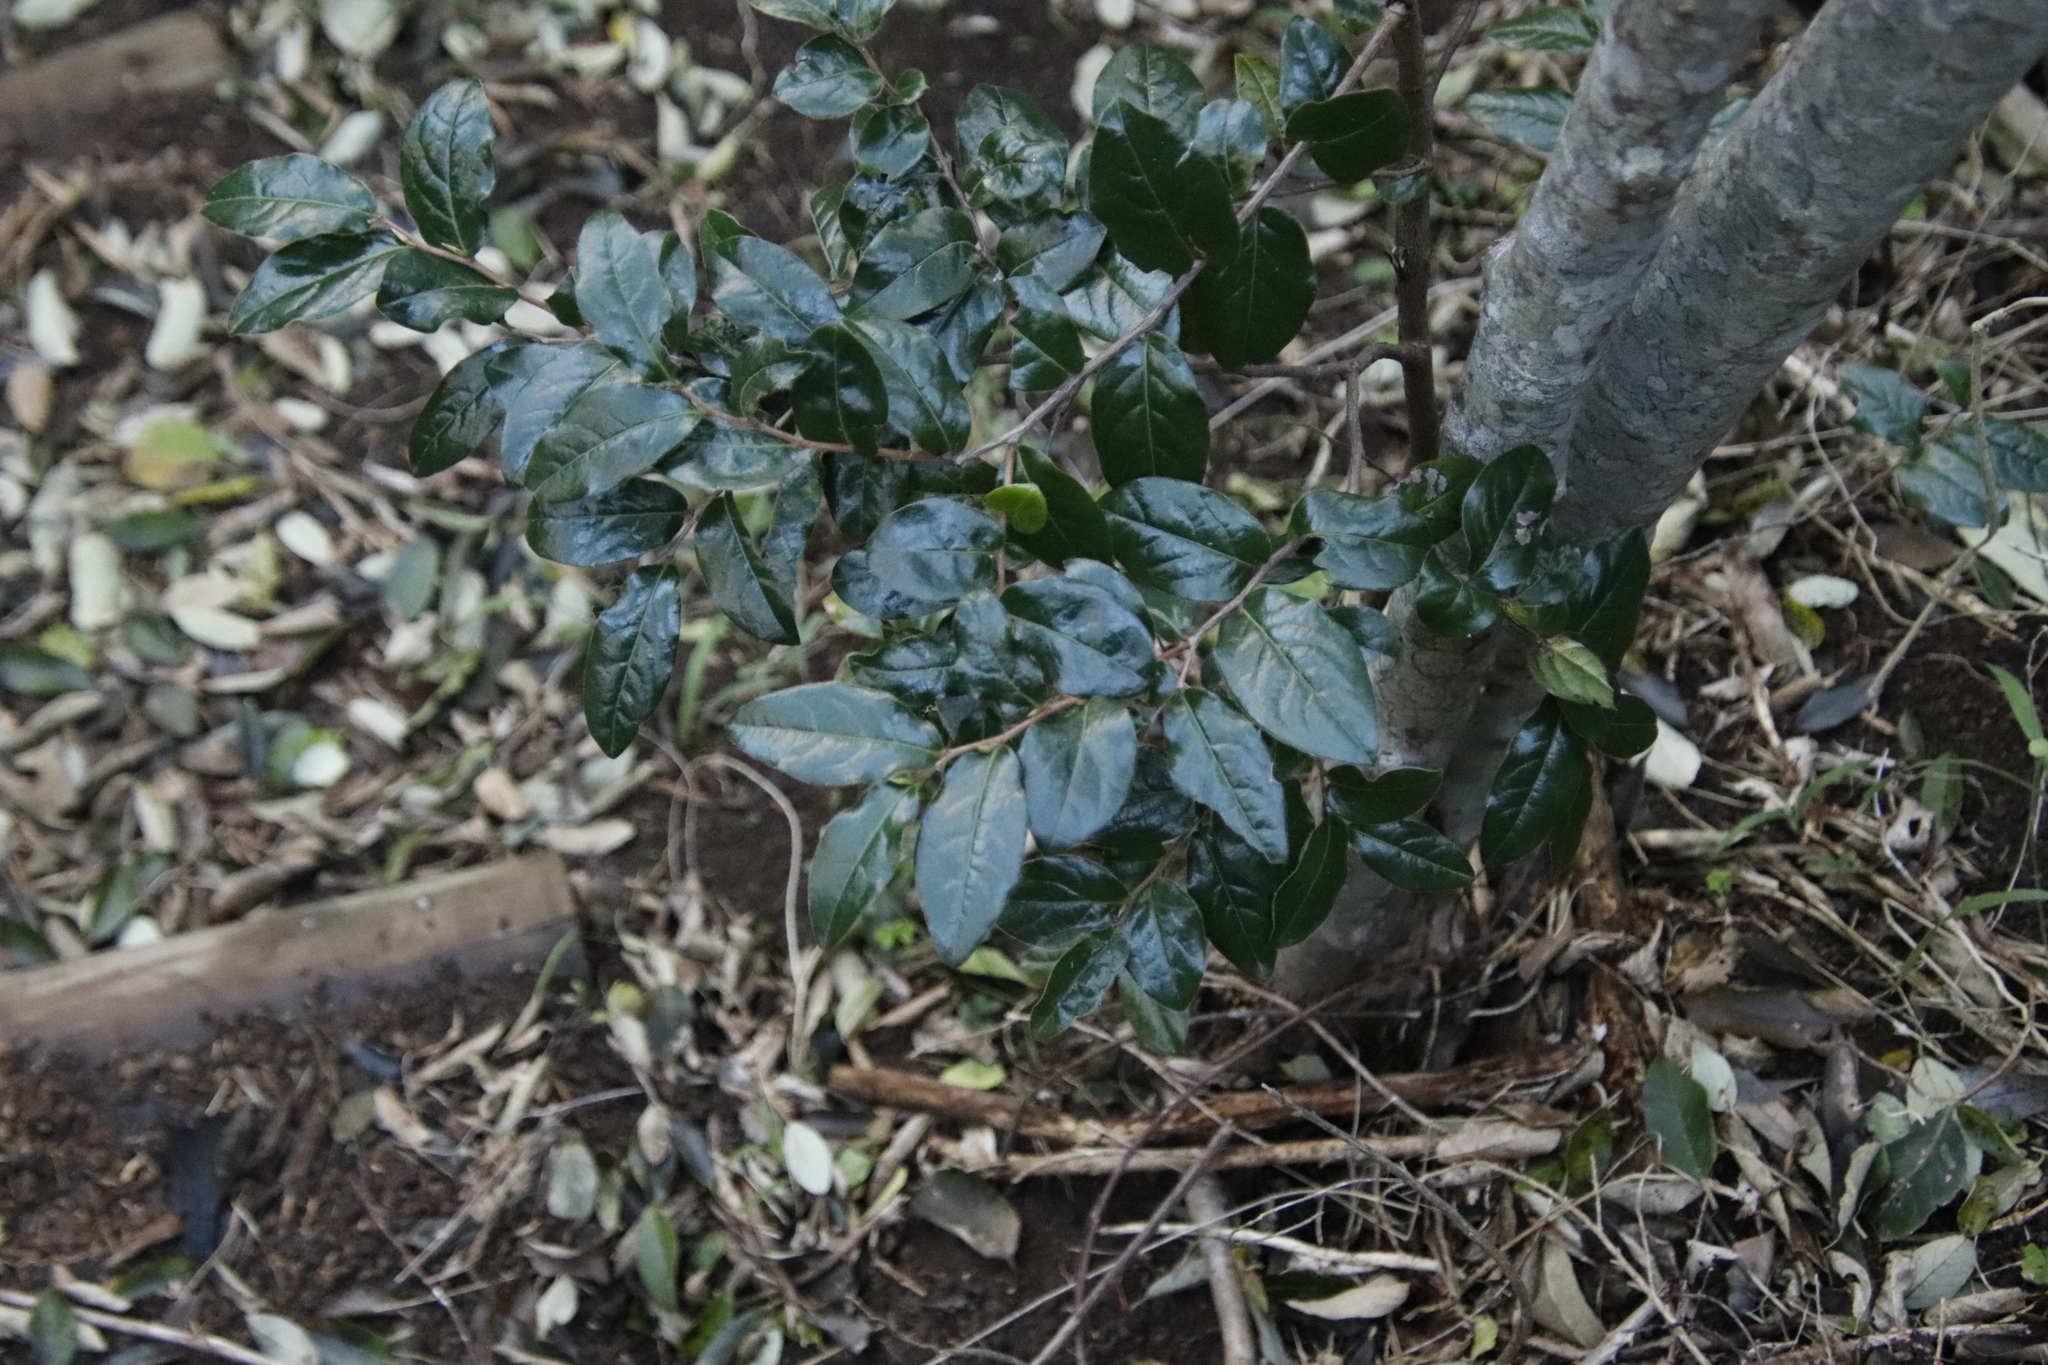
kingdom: Plantae
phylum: Tracheophyta
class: Magnoliopsida
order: Ericales
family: Ebenaceae
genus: Diospyros
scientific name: Diospyros whyteana
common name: Bladder-nut
